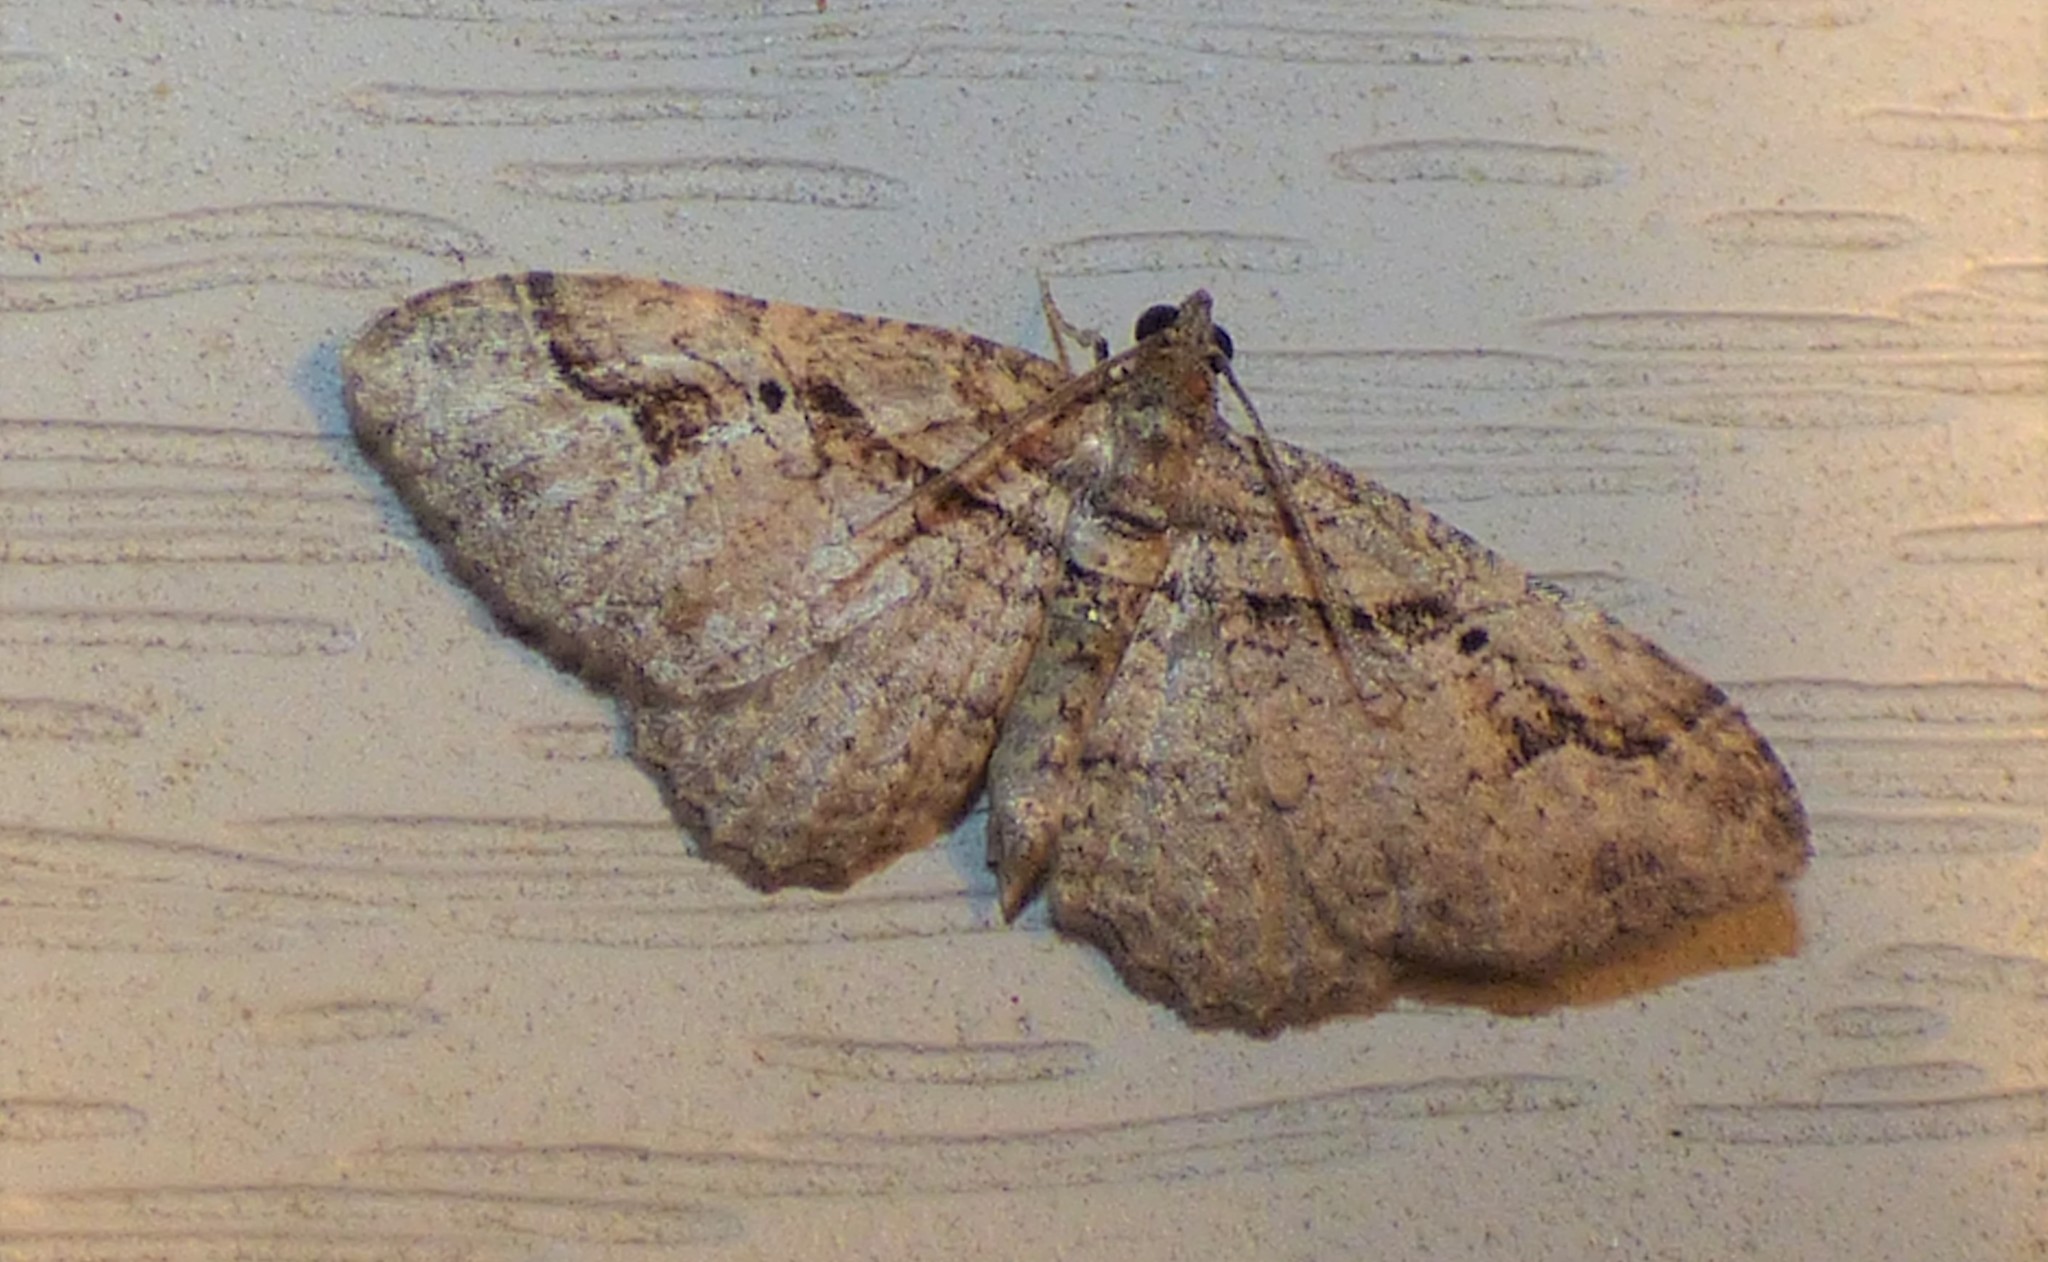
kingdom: Animalia
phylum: Arthropoda
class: Insecta
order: Lepidoptera
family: Geometridae
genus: Costaconvexa
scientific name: Costaconvexa centrostrigaria
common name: Bent-line carpet
